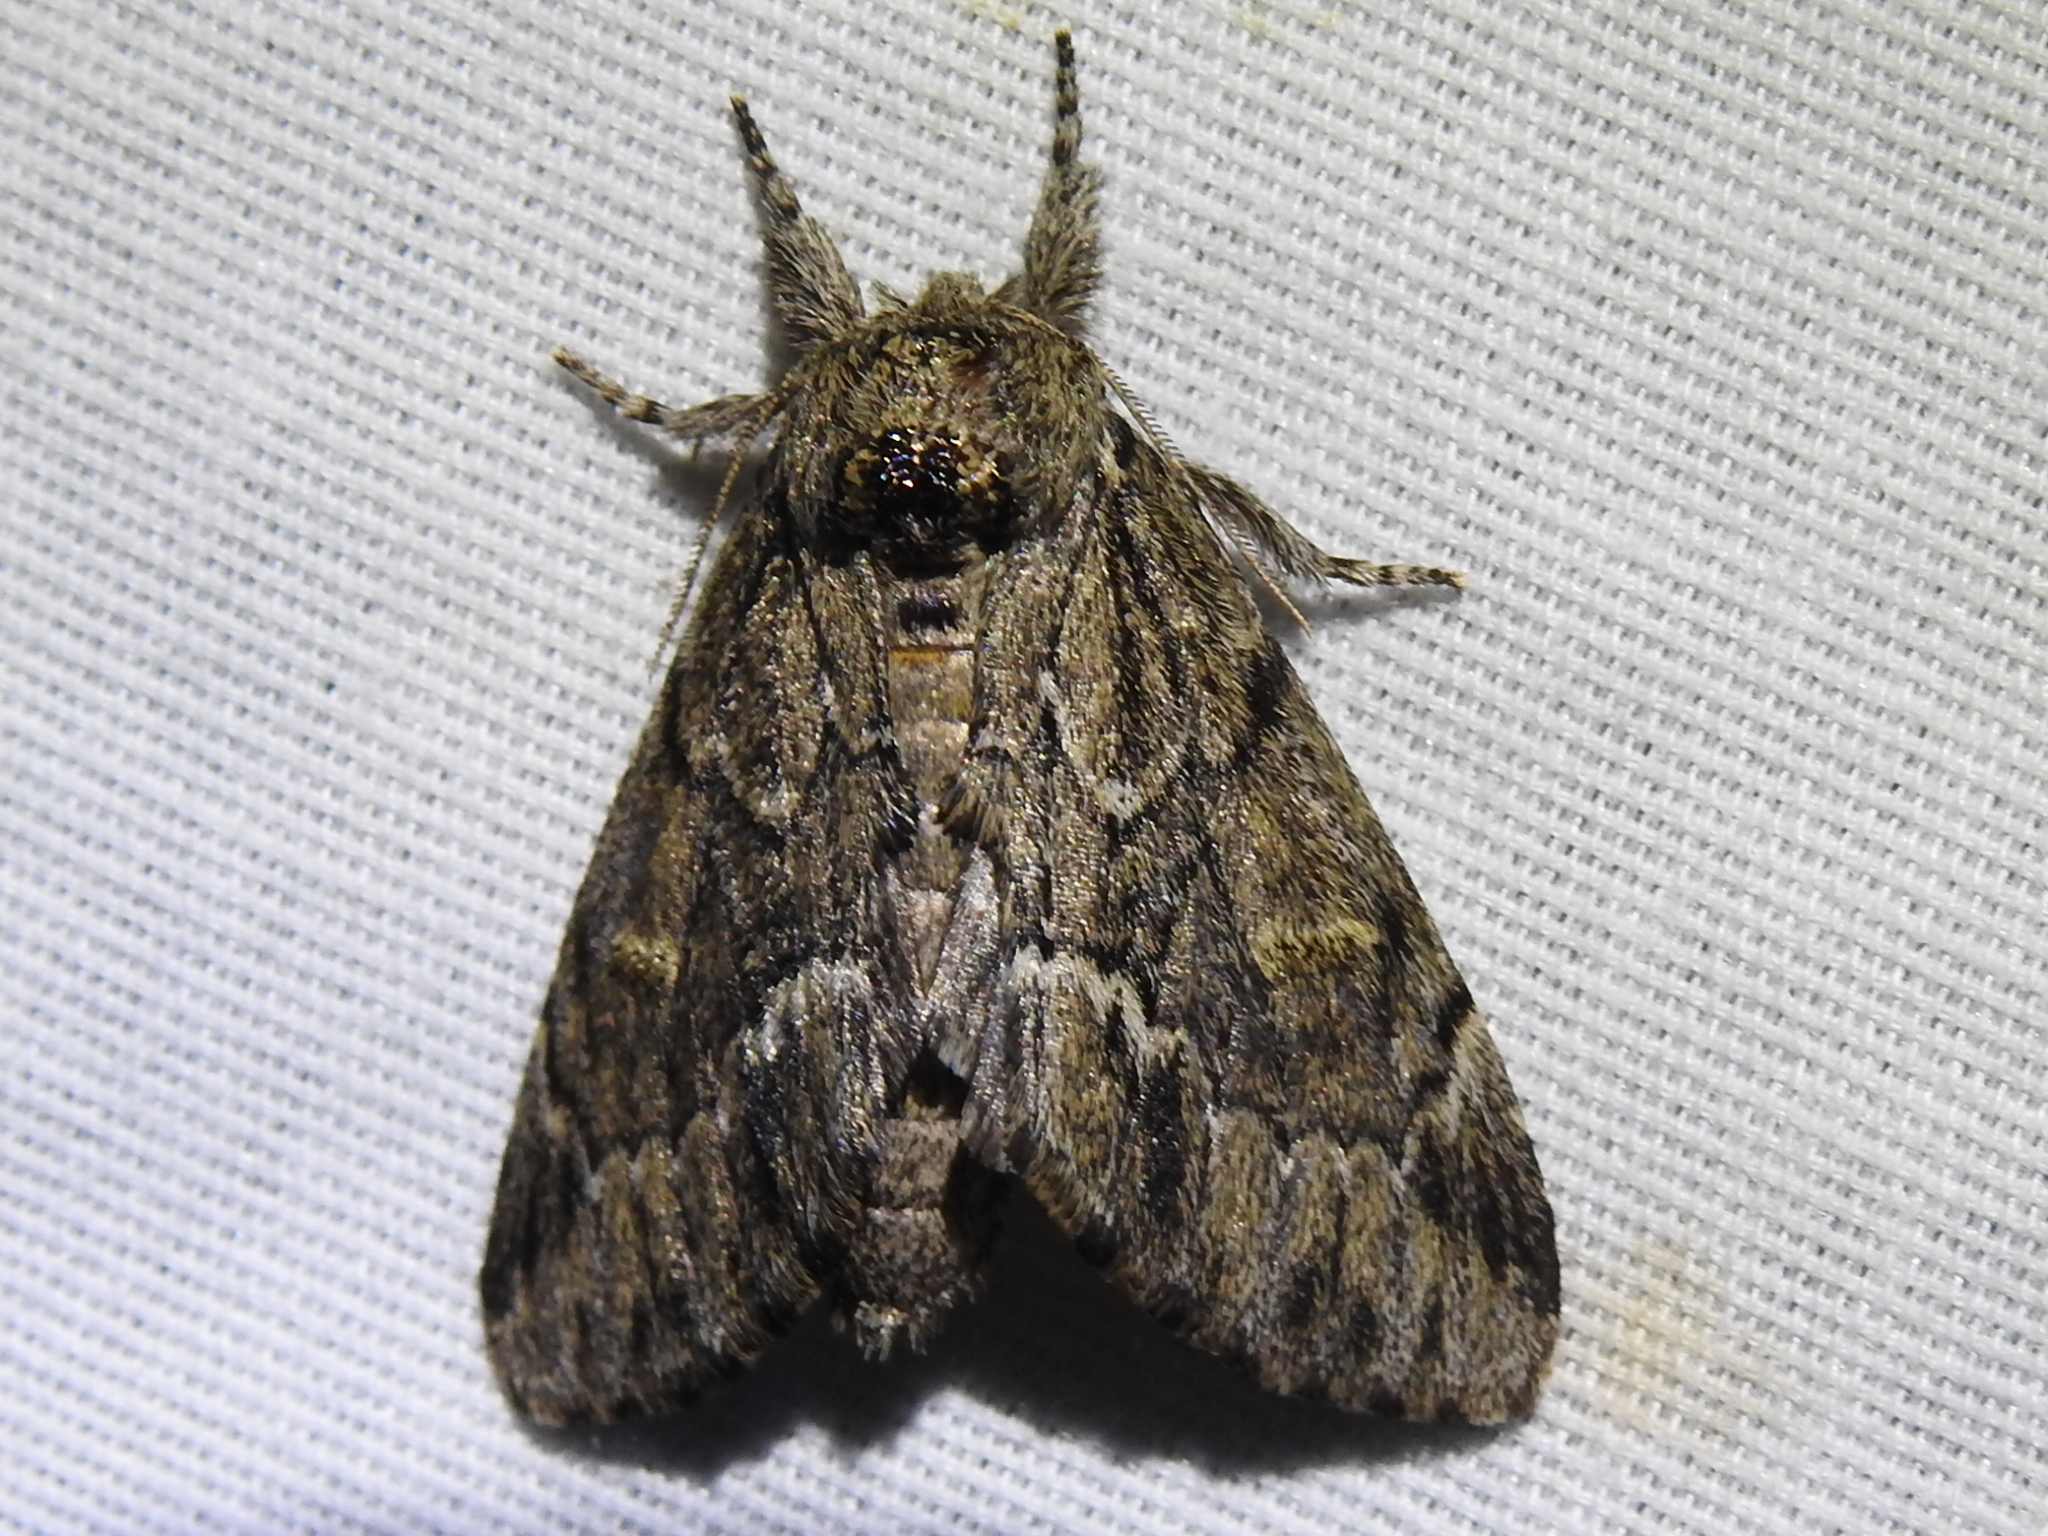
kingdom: Animalia
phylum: Arthropoda
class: Insecta
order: Lepidoptera
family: Notodontidae
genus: Paraeschra
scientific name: Paraeschra georgica
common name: Georgian prominent
